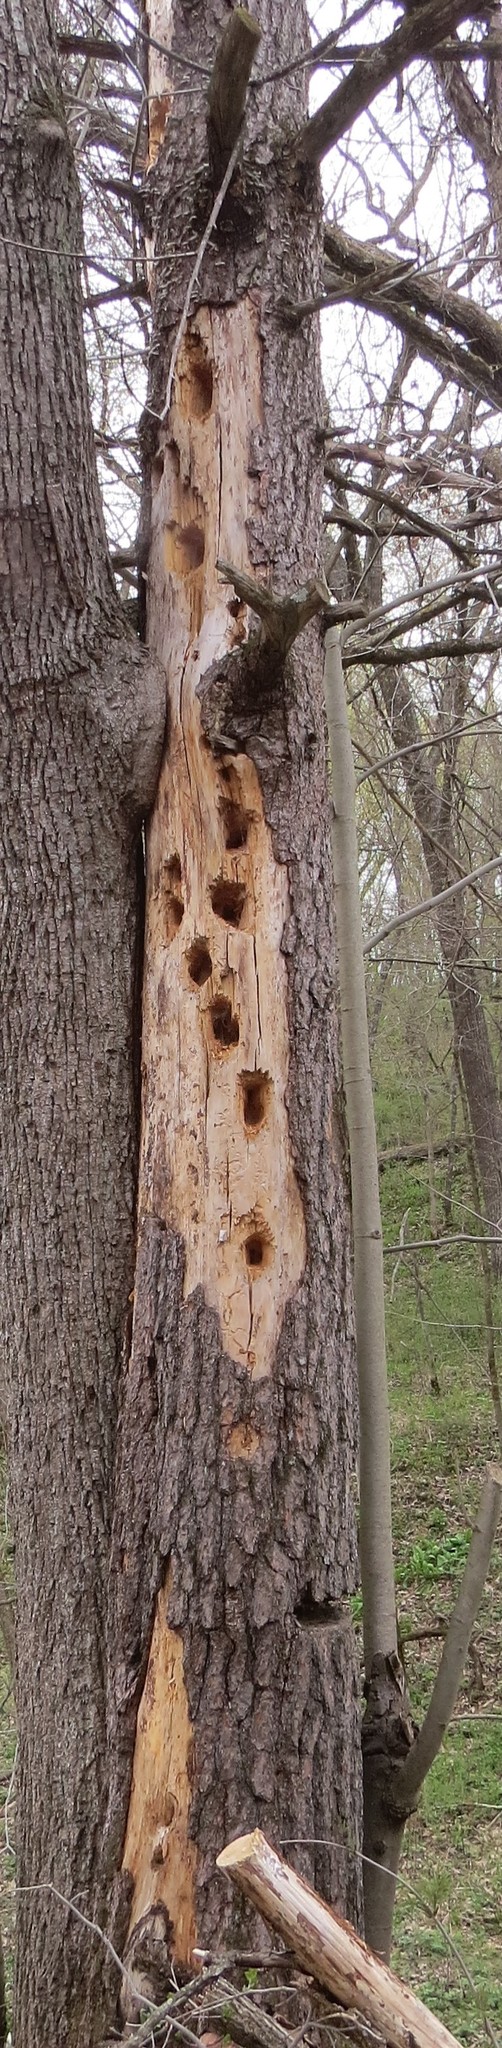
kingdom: Animalia
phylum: Chordata
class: Aves
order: Piciformes
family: Picidae
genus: Dryocopus
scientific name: Dryocopus pileatus
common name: Pileated woodpecker
